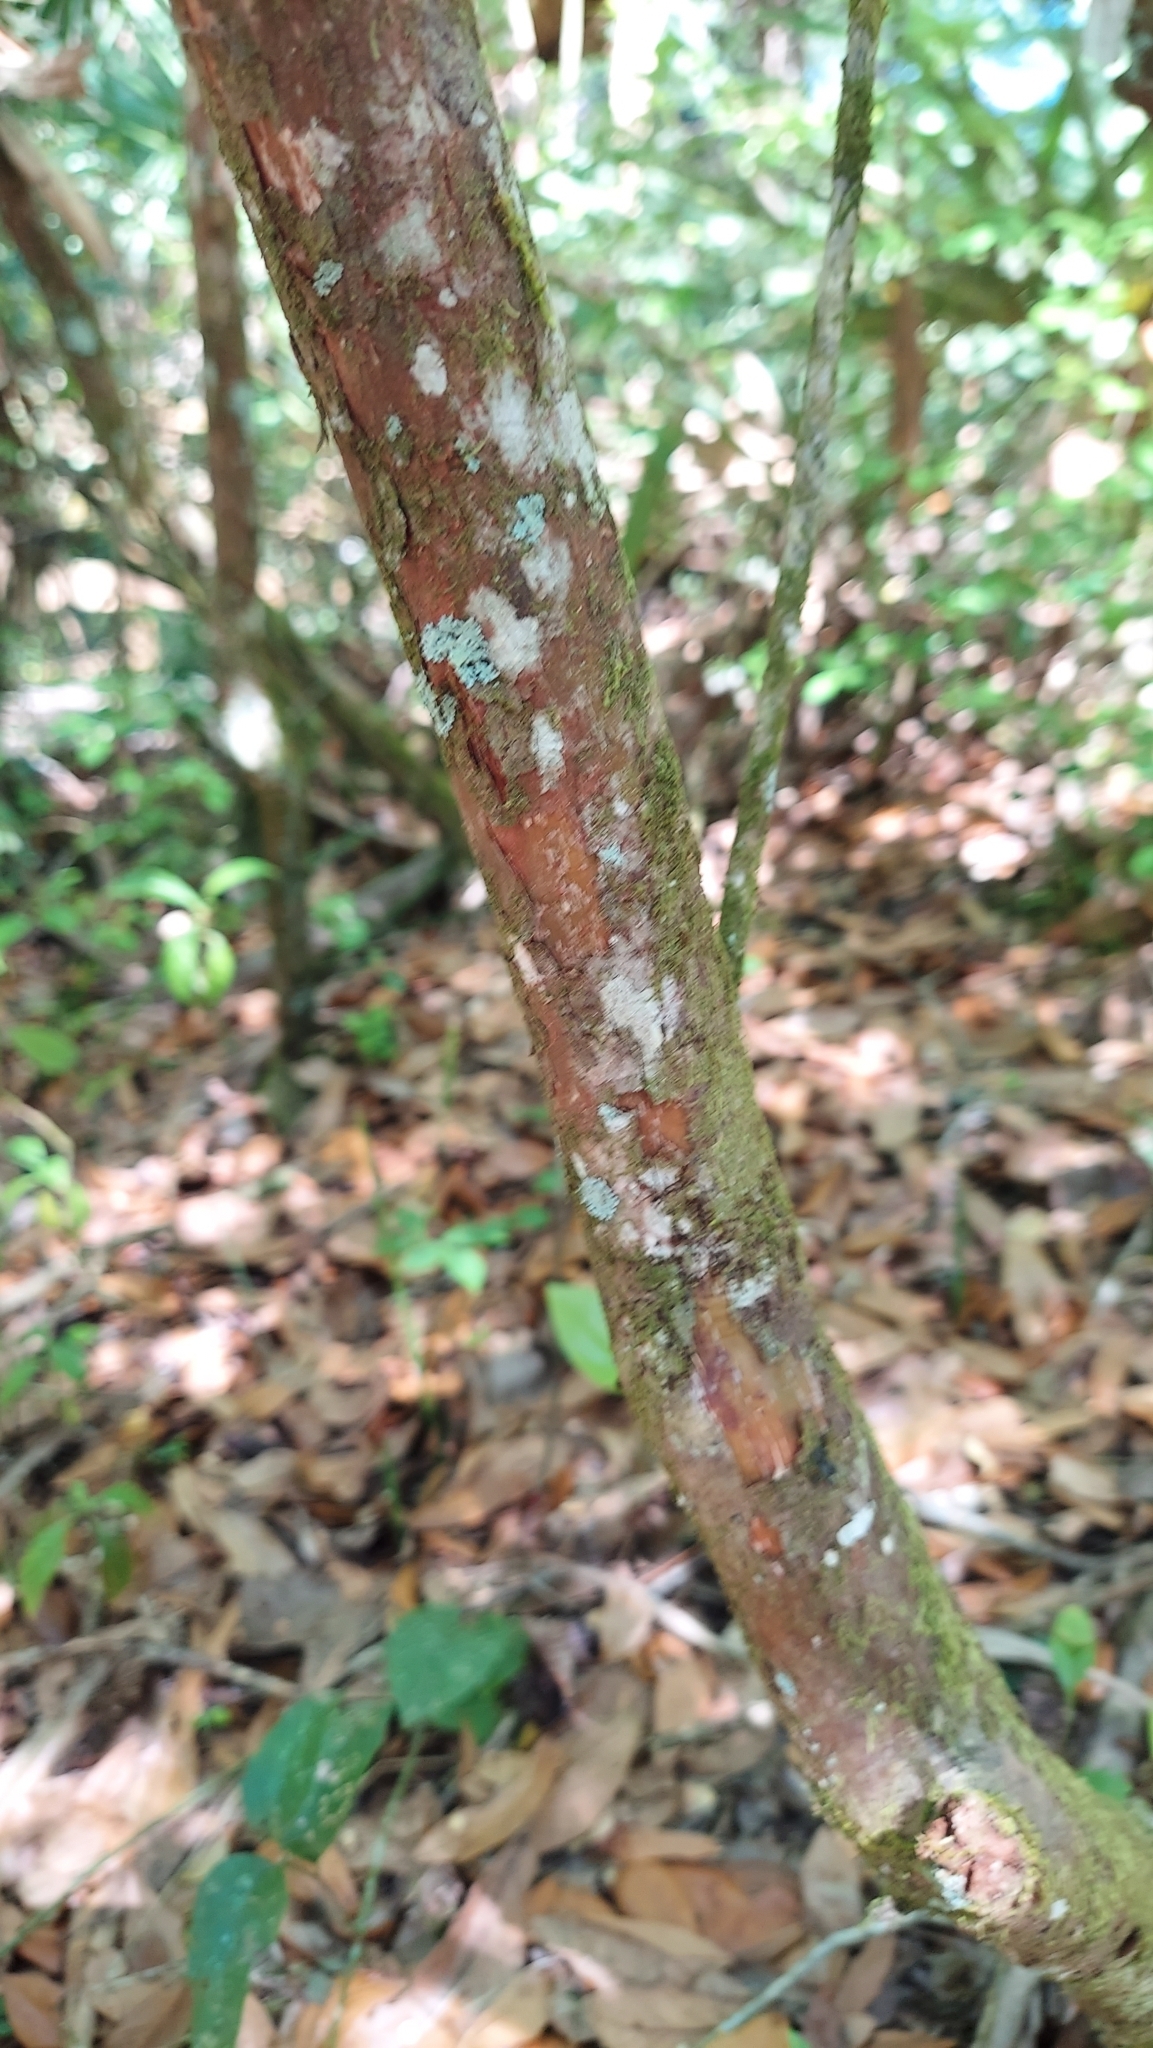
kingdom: Plantae
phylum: Tracheophyta
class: Magnoliopsida
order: Ericales
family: Ericaceae
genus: Vaccinium
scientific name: Vaccinium arboreum
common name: Farkleberry
